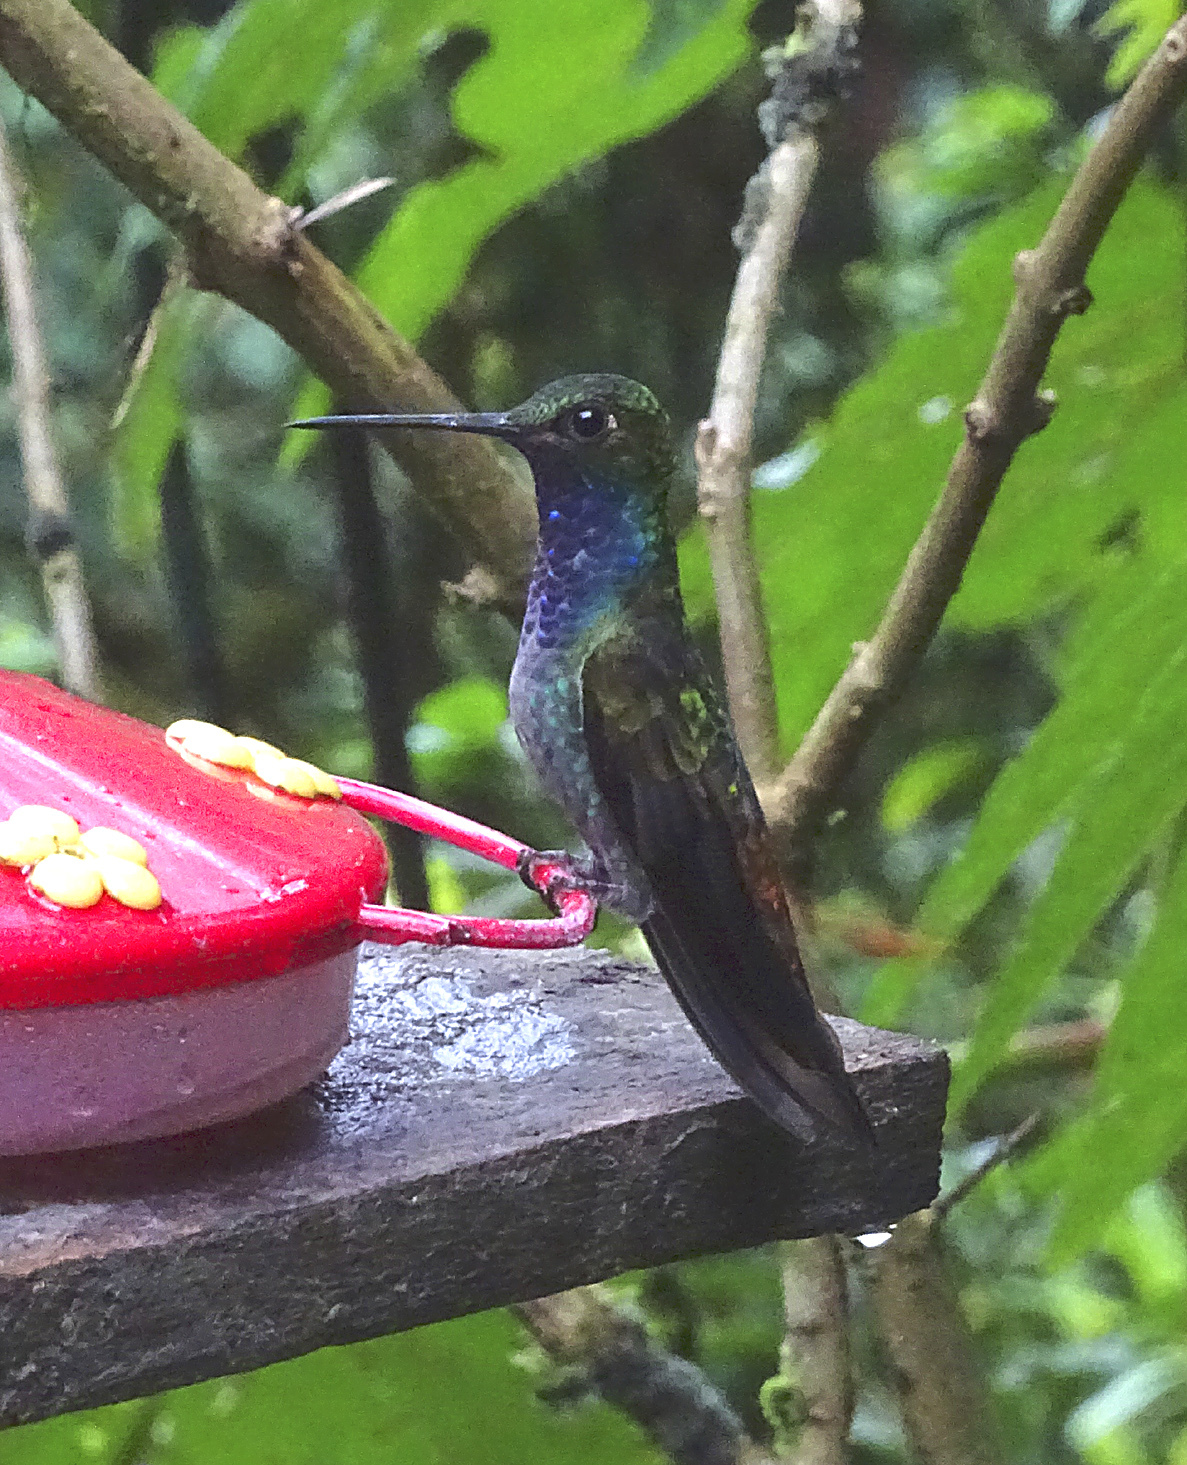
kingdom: Animalia
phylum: Chordata
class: Aves
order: Apodiformes
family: Trochilidae
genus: Urochroa
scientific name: Urochroa leucura
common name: Green-backed hillstar
